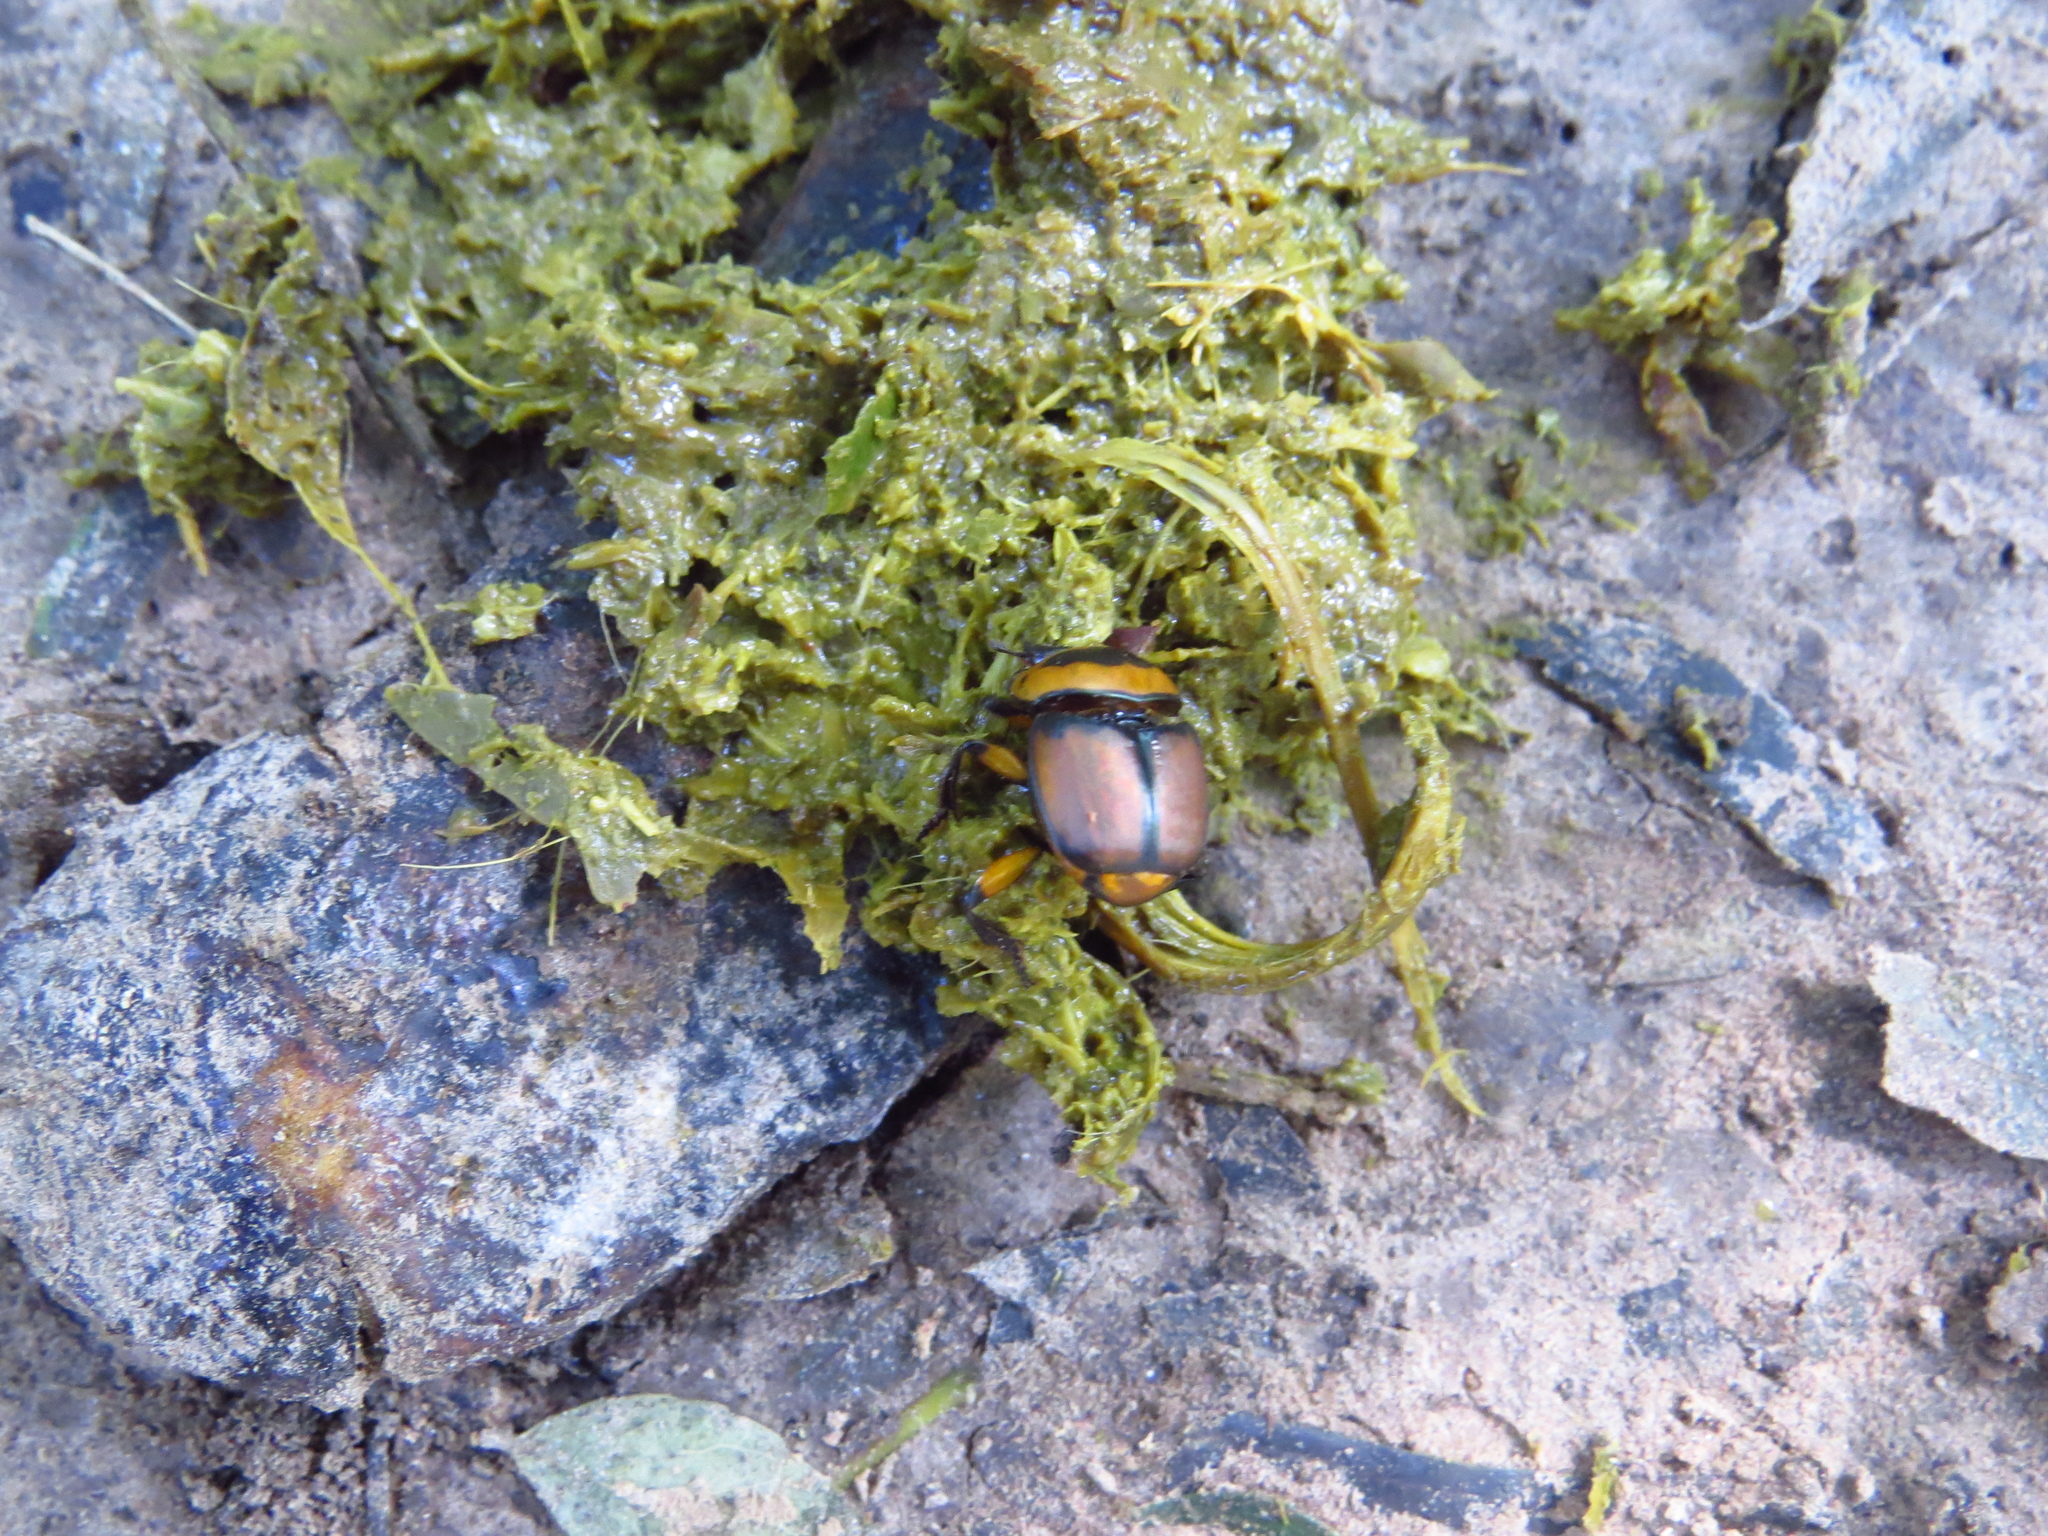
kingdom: Animalia
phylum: Arthropoda
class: Insecta
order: Coleoptera
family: Scarabaeidae
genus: Canthon
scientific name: Canthon quinquemaculatus
